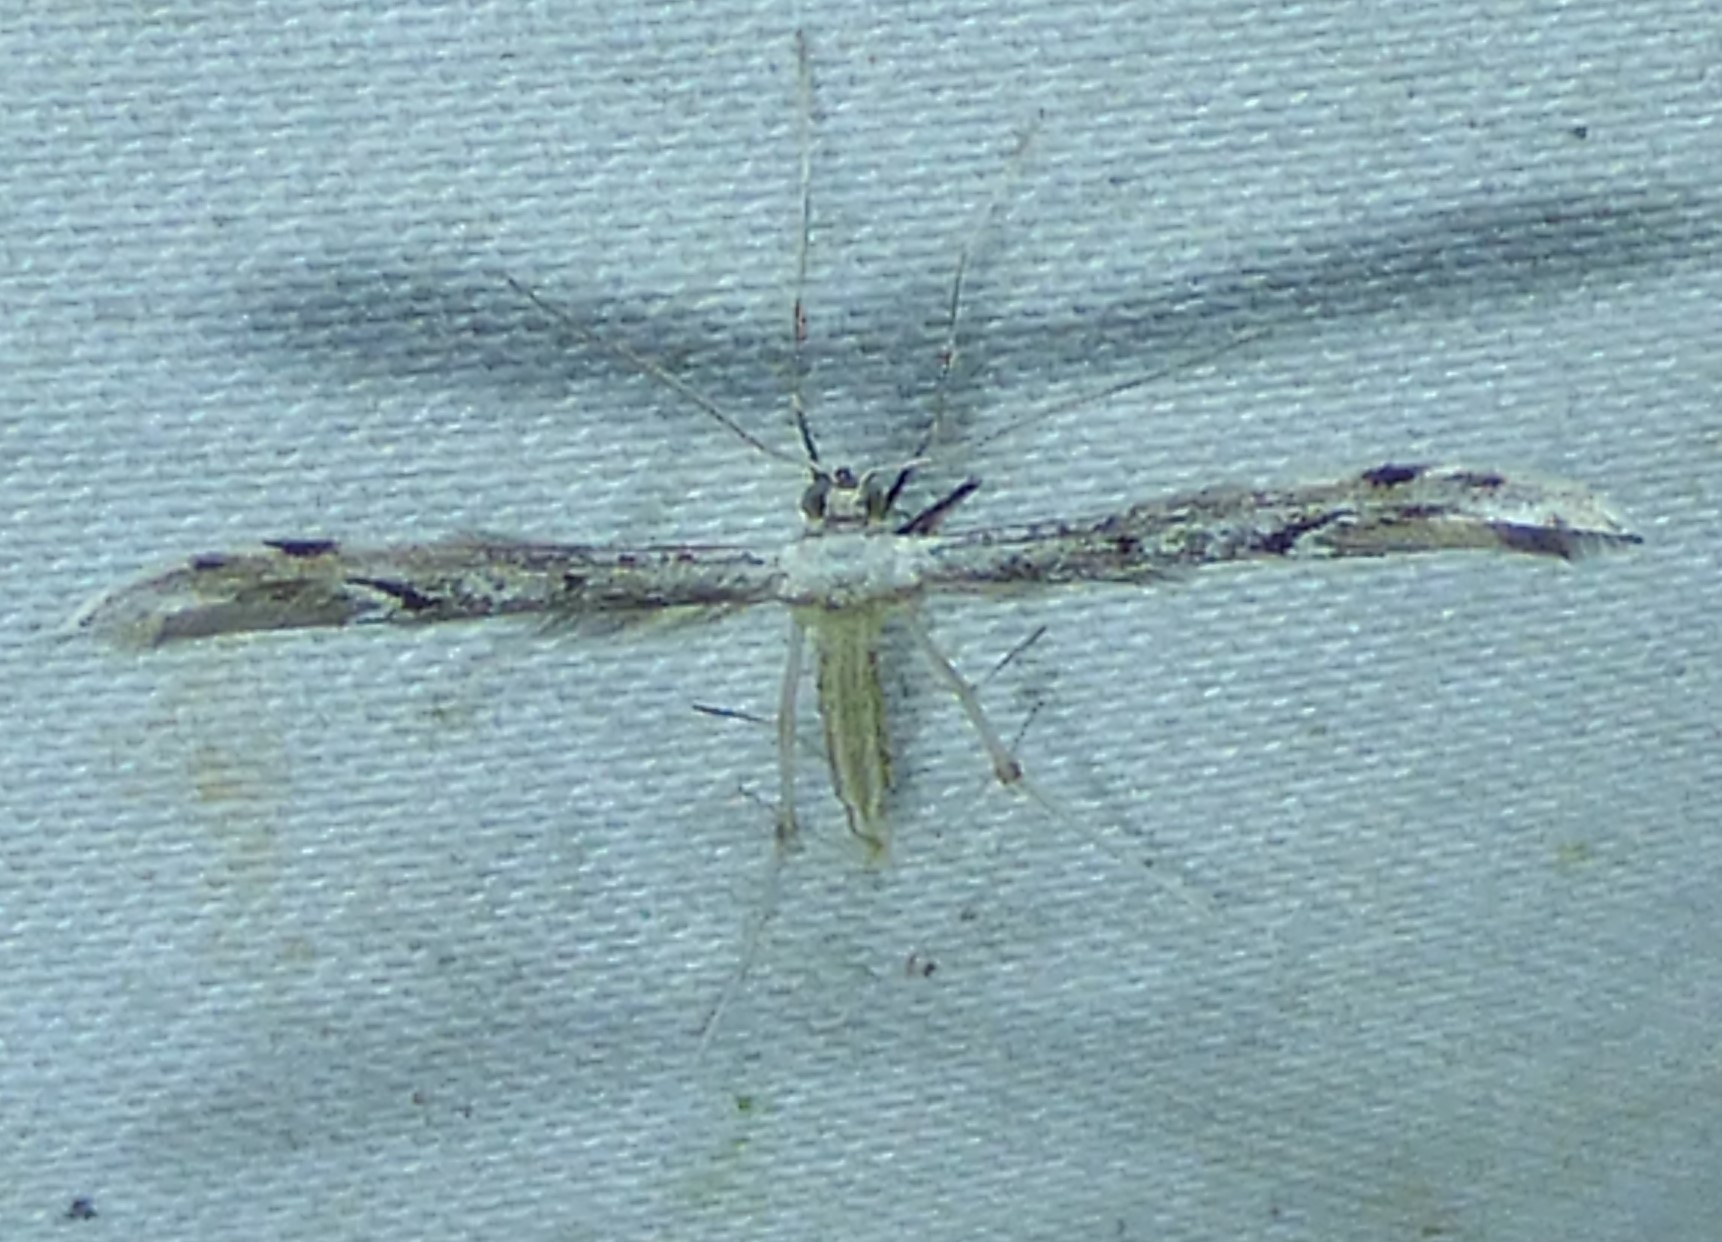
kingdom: Animalia
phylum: Arthropoda
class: Insecta
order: Lepidoptera
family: Pterophoridae
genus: Pselnophorus
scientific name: Pselnophorus belfragei
